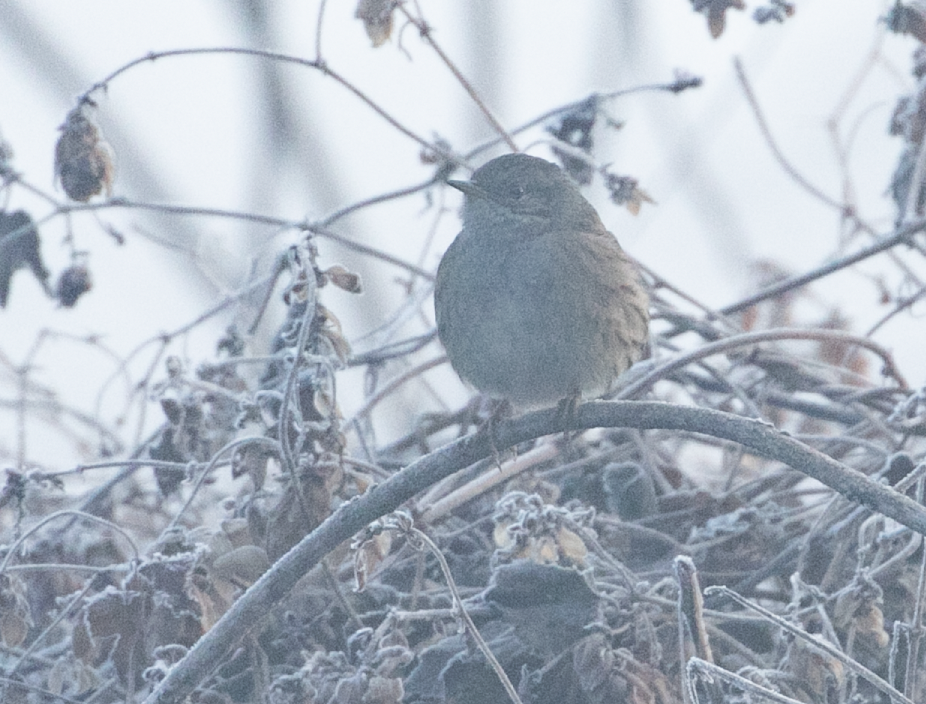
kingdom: Animalia
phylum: Chordata
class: Aves
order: Passeriformes
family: Prunellidae
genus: Prunella
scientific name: Prunella modularis
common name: Dunnock
